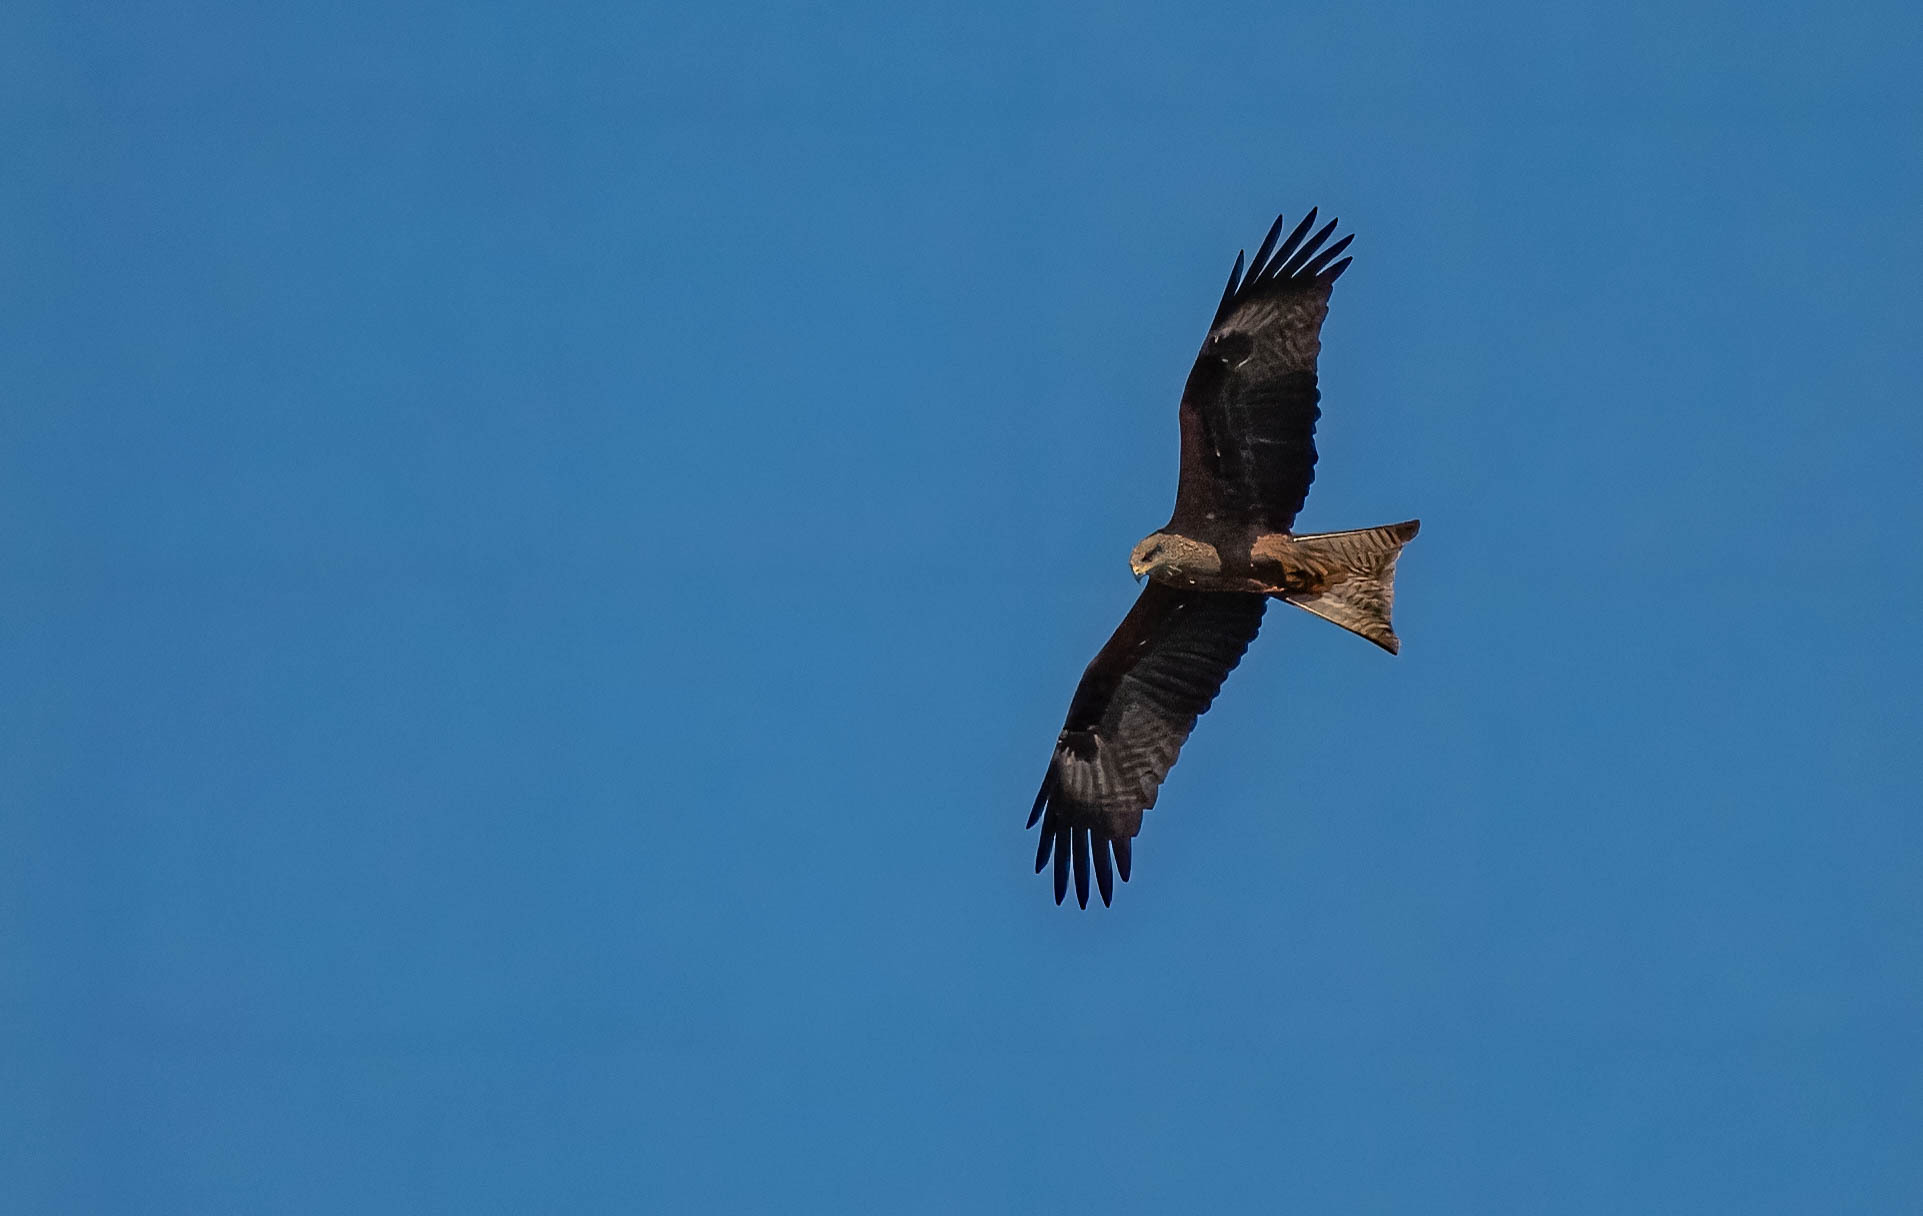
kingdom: Animalia
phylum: Chordata
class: Aves
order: Accipitriformes
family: Accipitridae
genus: Milvus
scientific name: Milvus migrans
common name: Black kite
